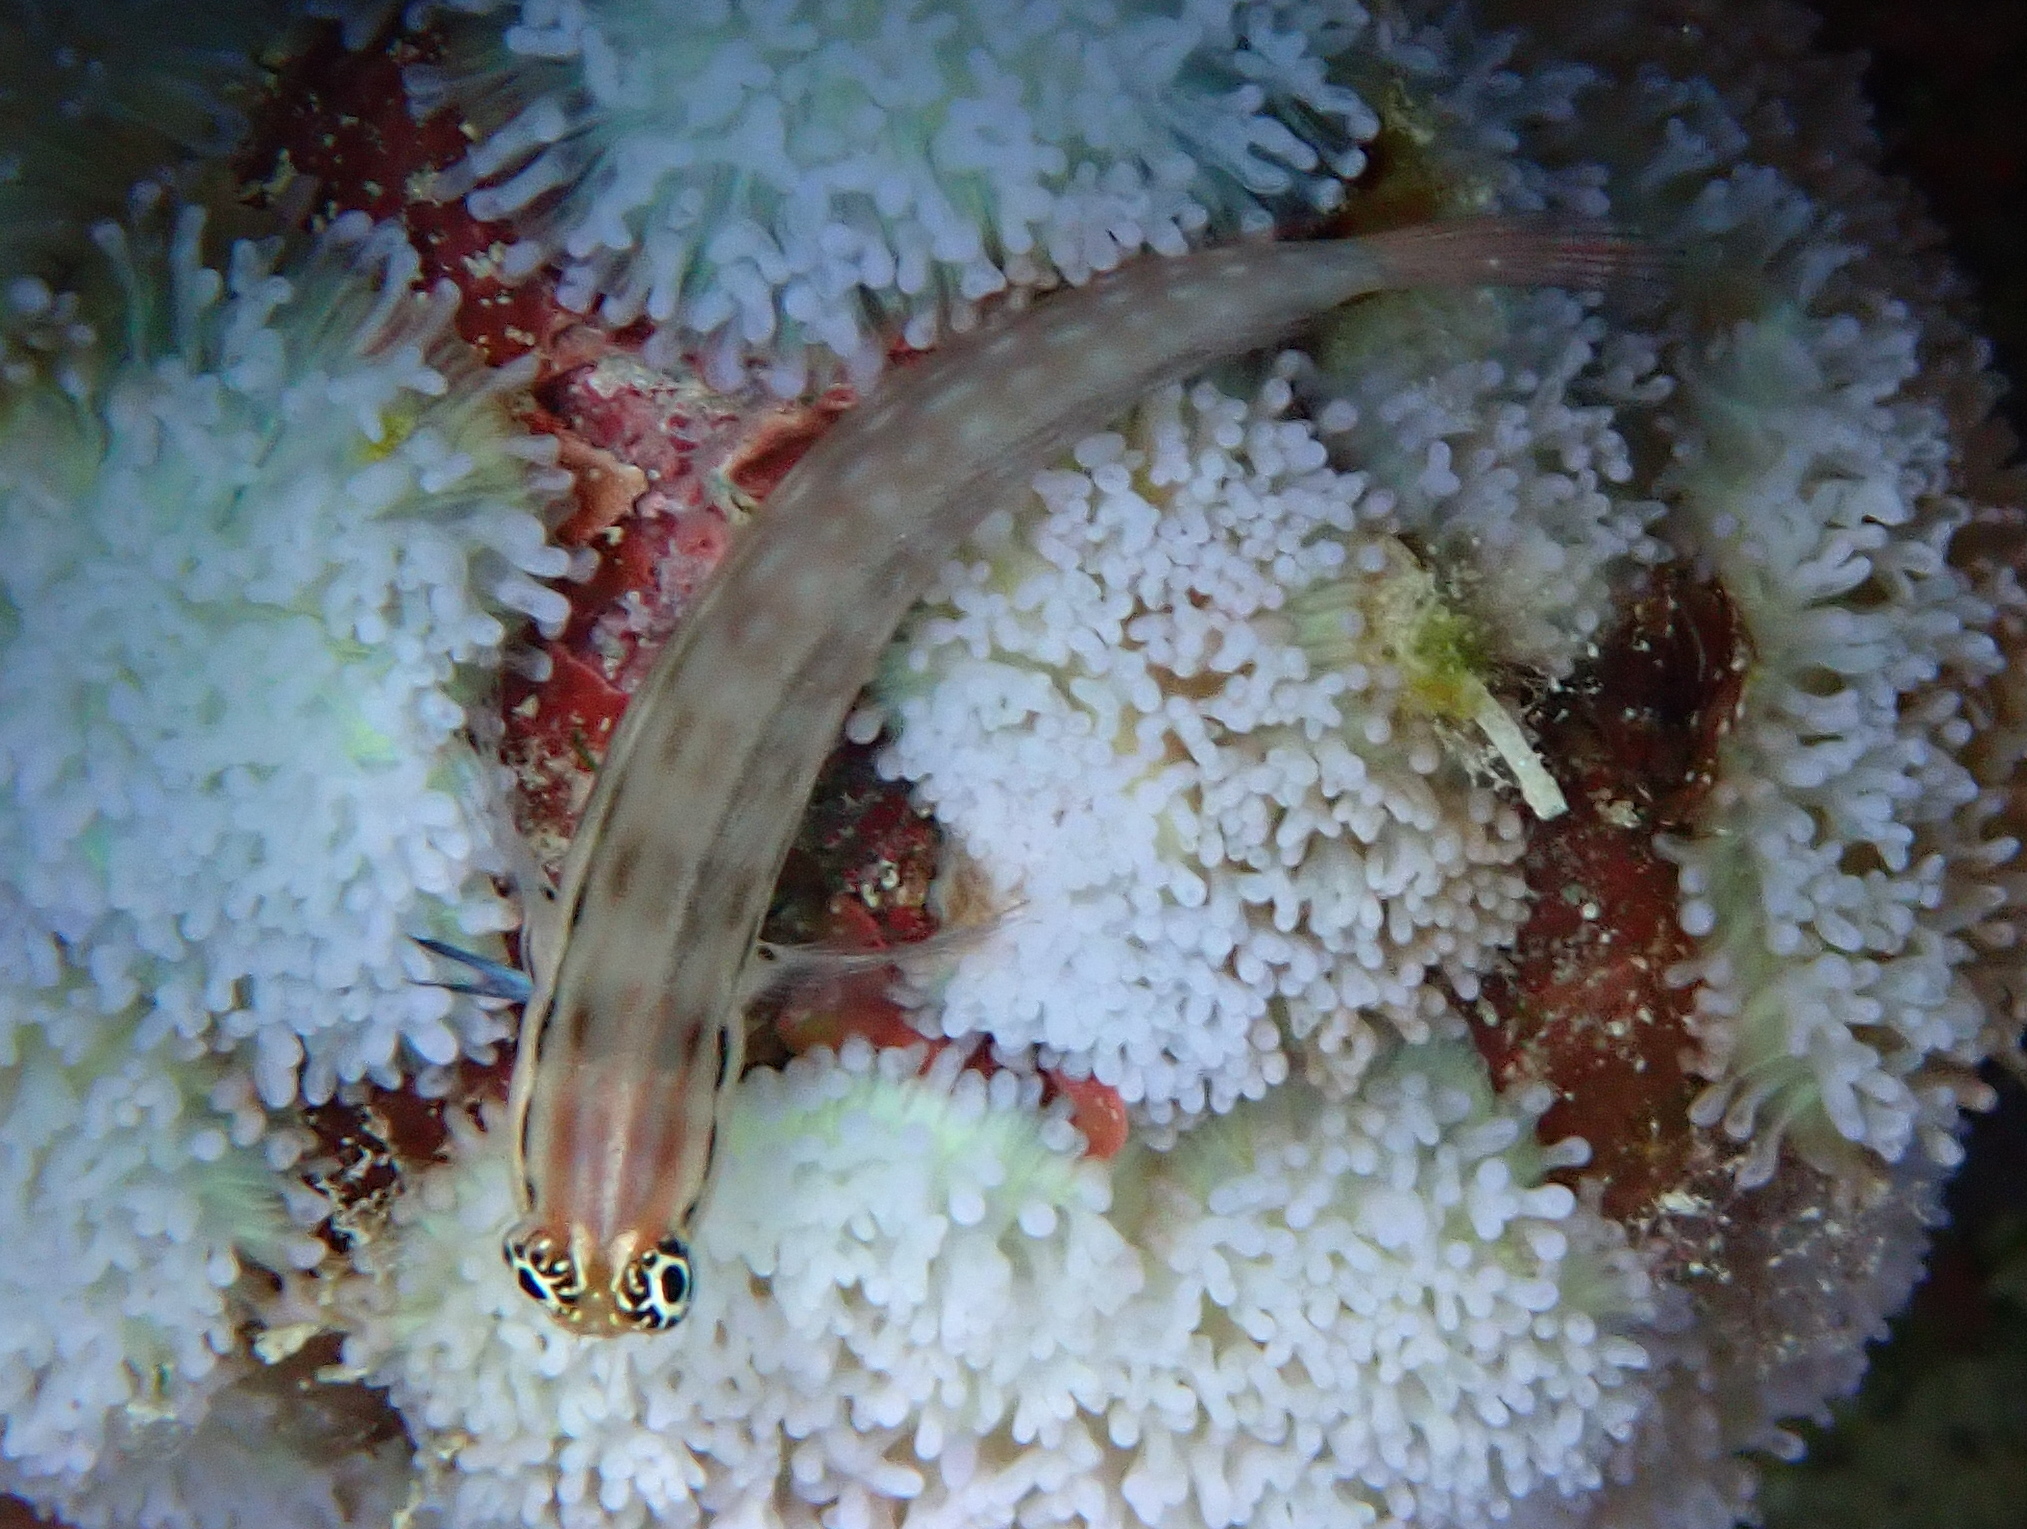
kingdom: Animalia
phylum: Chordata
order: Perciformes
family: Blenniidae
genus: Ecsenius
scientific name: Ecsenius dentex
